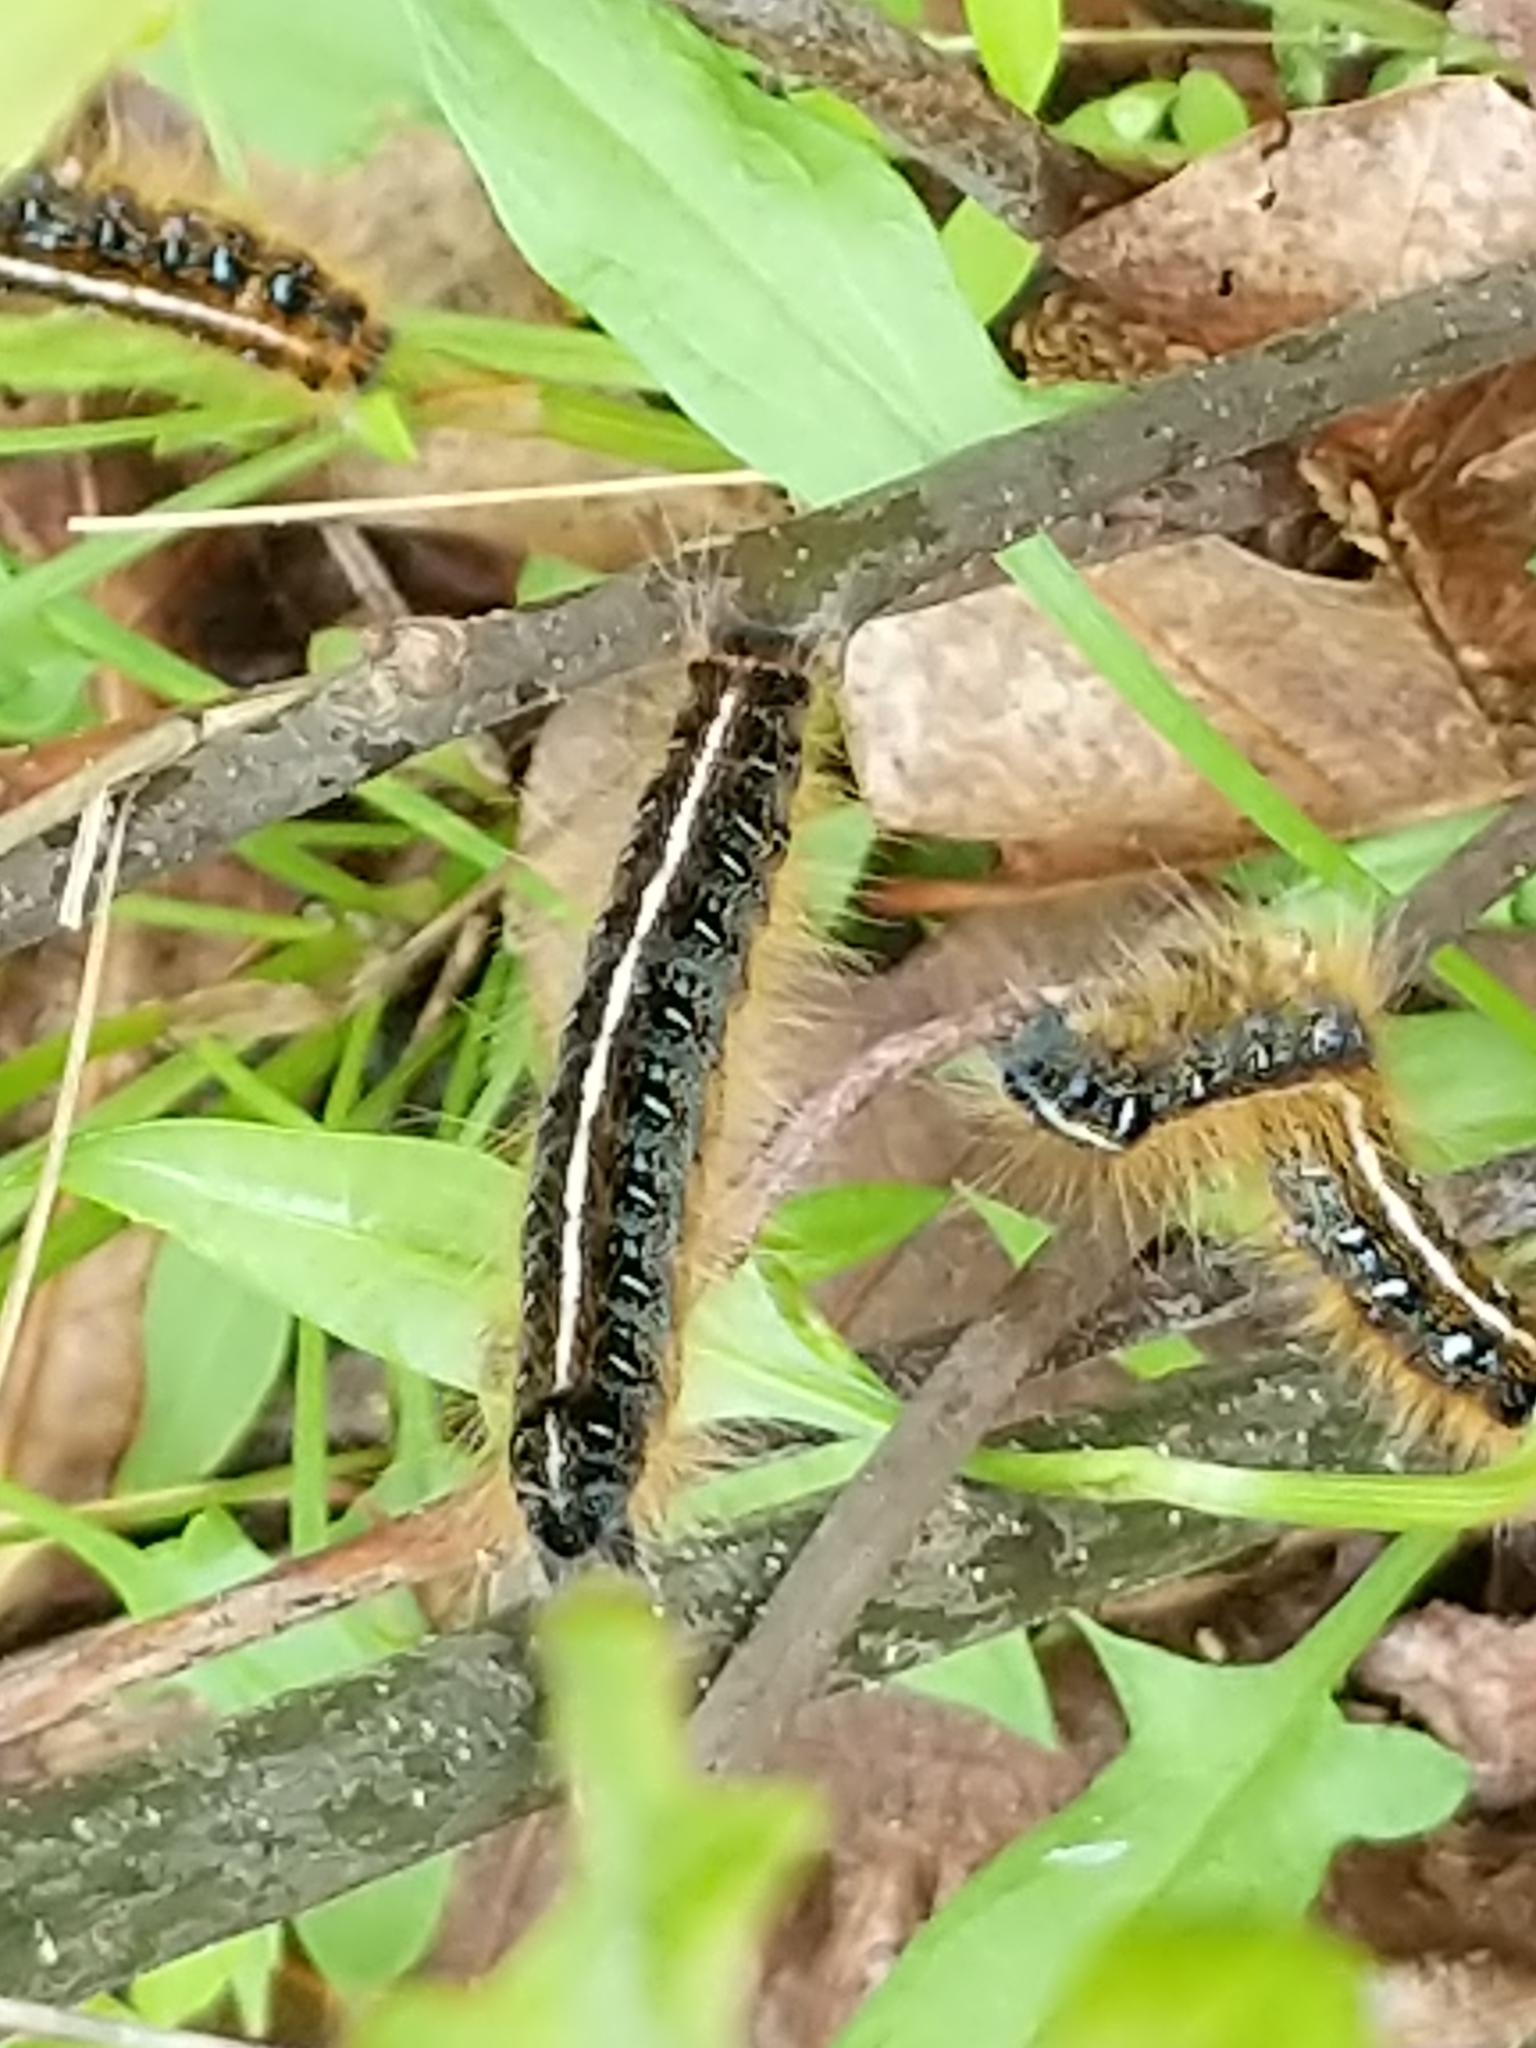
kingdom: Animalia
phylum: Arthropoda
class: Insecta
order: Lepidoptera
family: Lasiocampidae
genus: Malacosoma
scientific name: Malacosoma americana
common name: Eastern tent caterpillar moth
